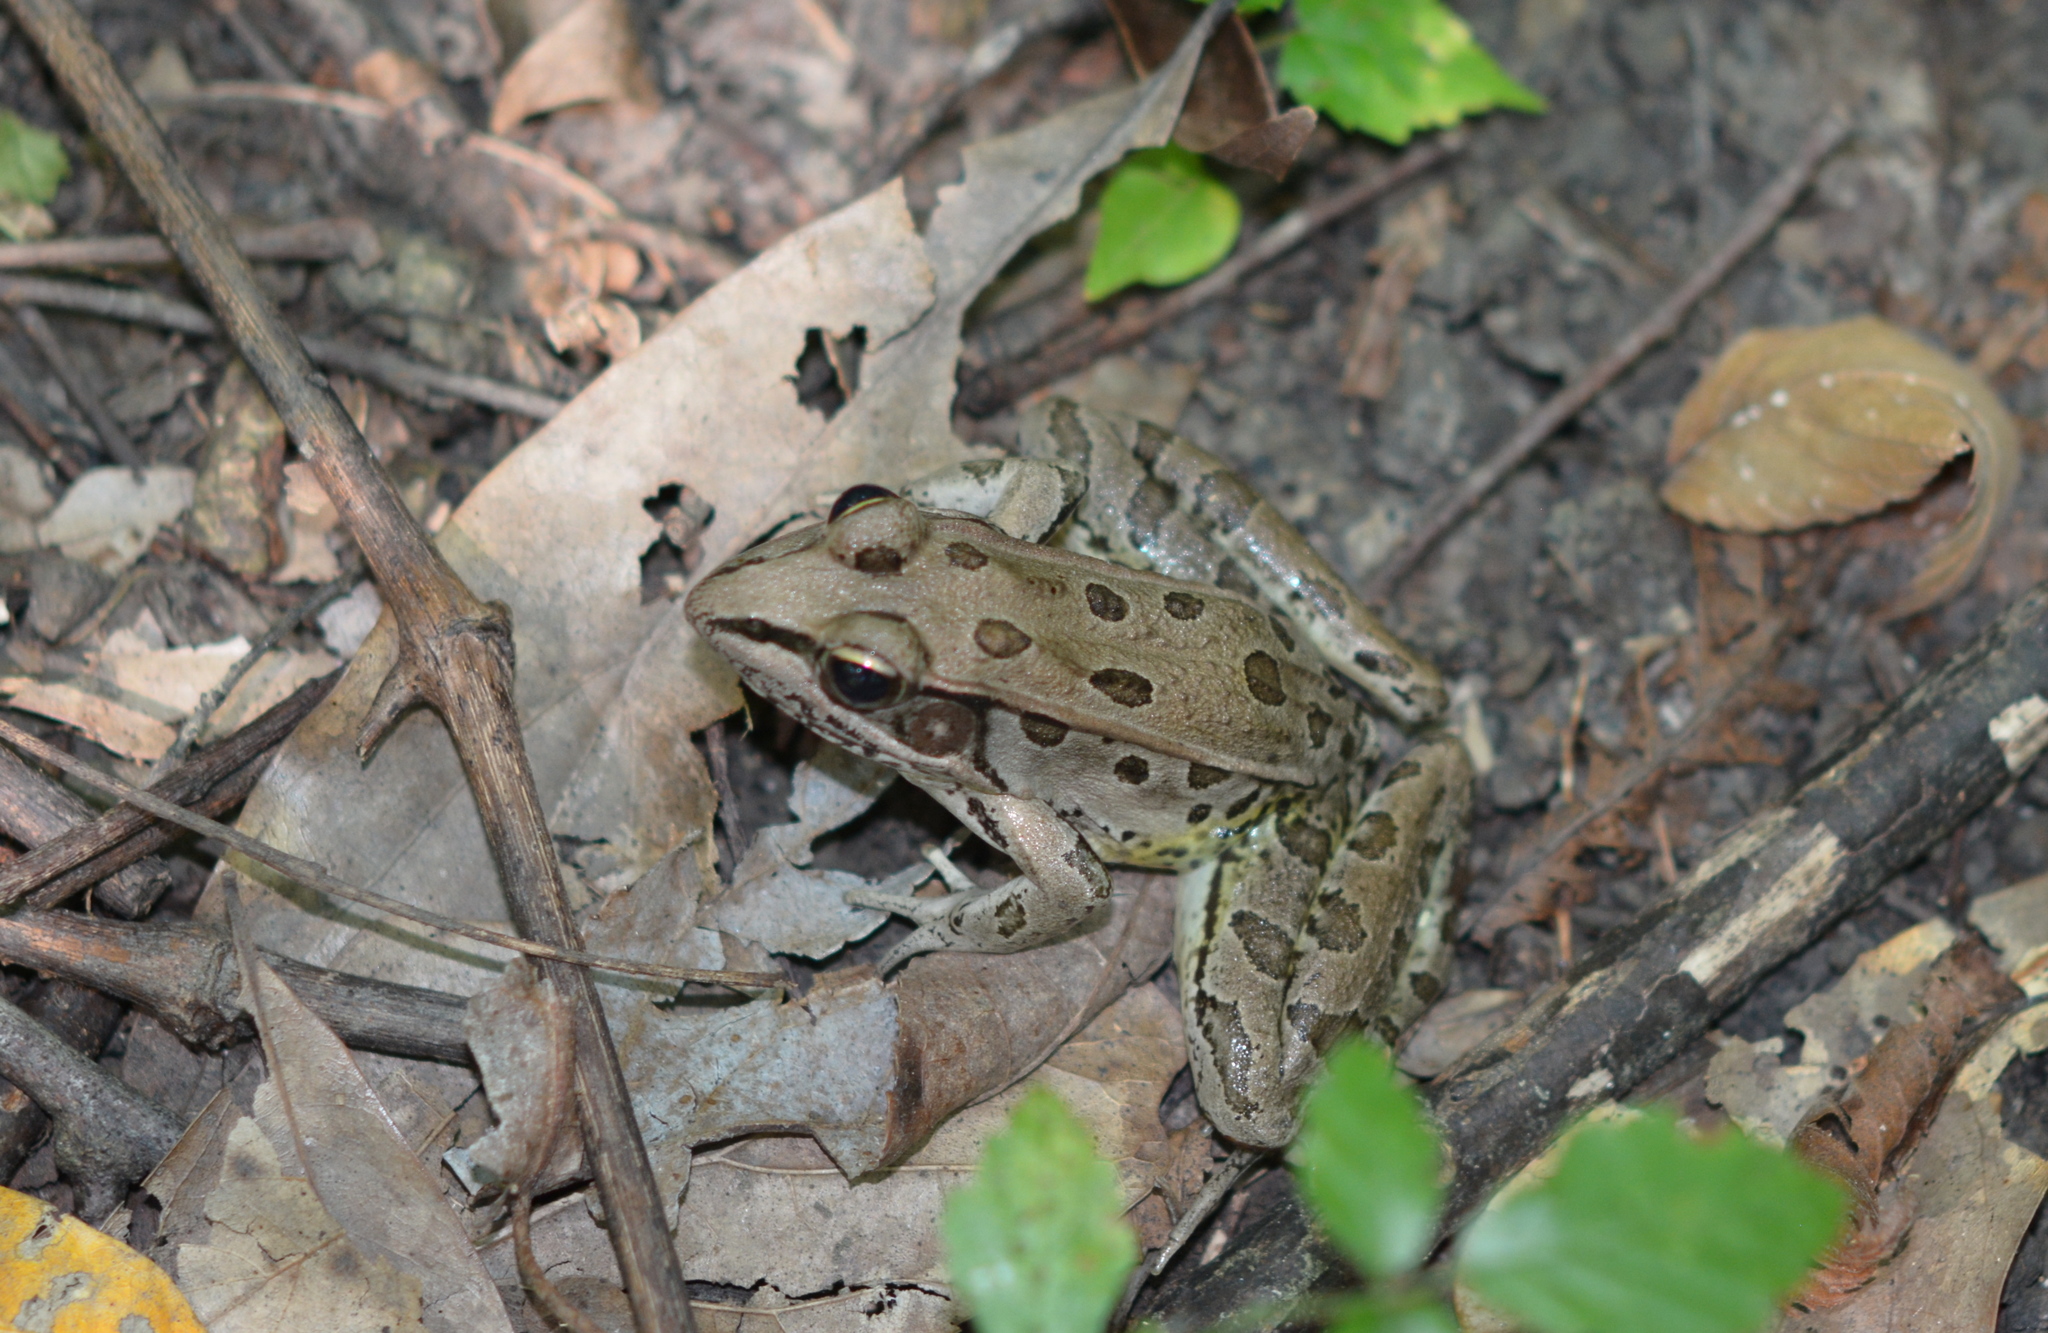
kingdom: Animalia
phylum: Chordata
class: Amphibia
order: Anura
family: Ranidae
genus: Lithobates
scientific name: Lithobates sphenocephalus
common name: Southern leopard frog
